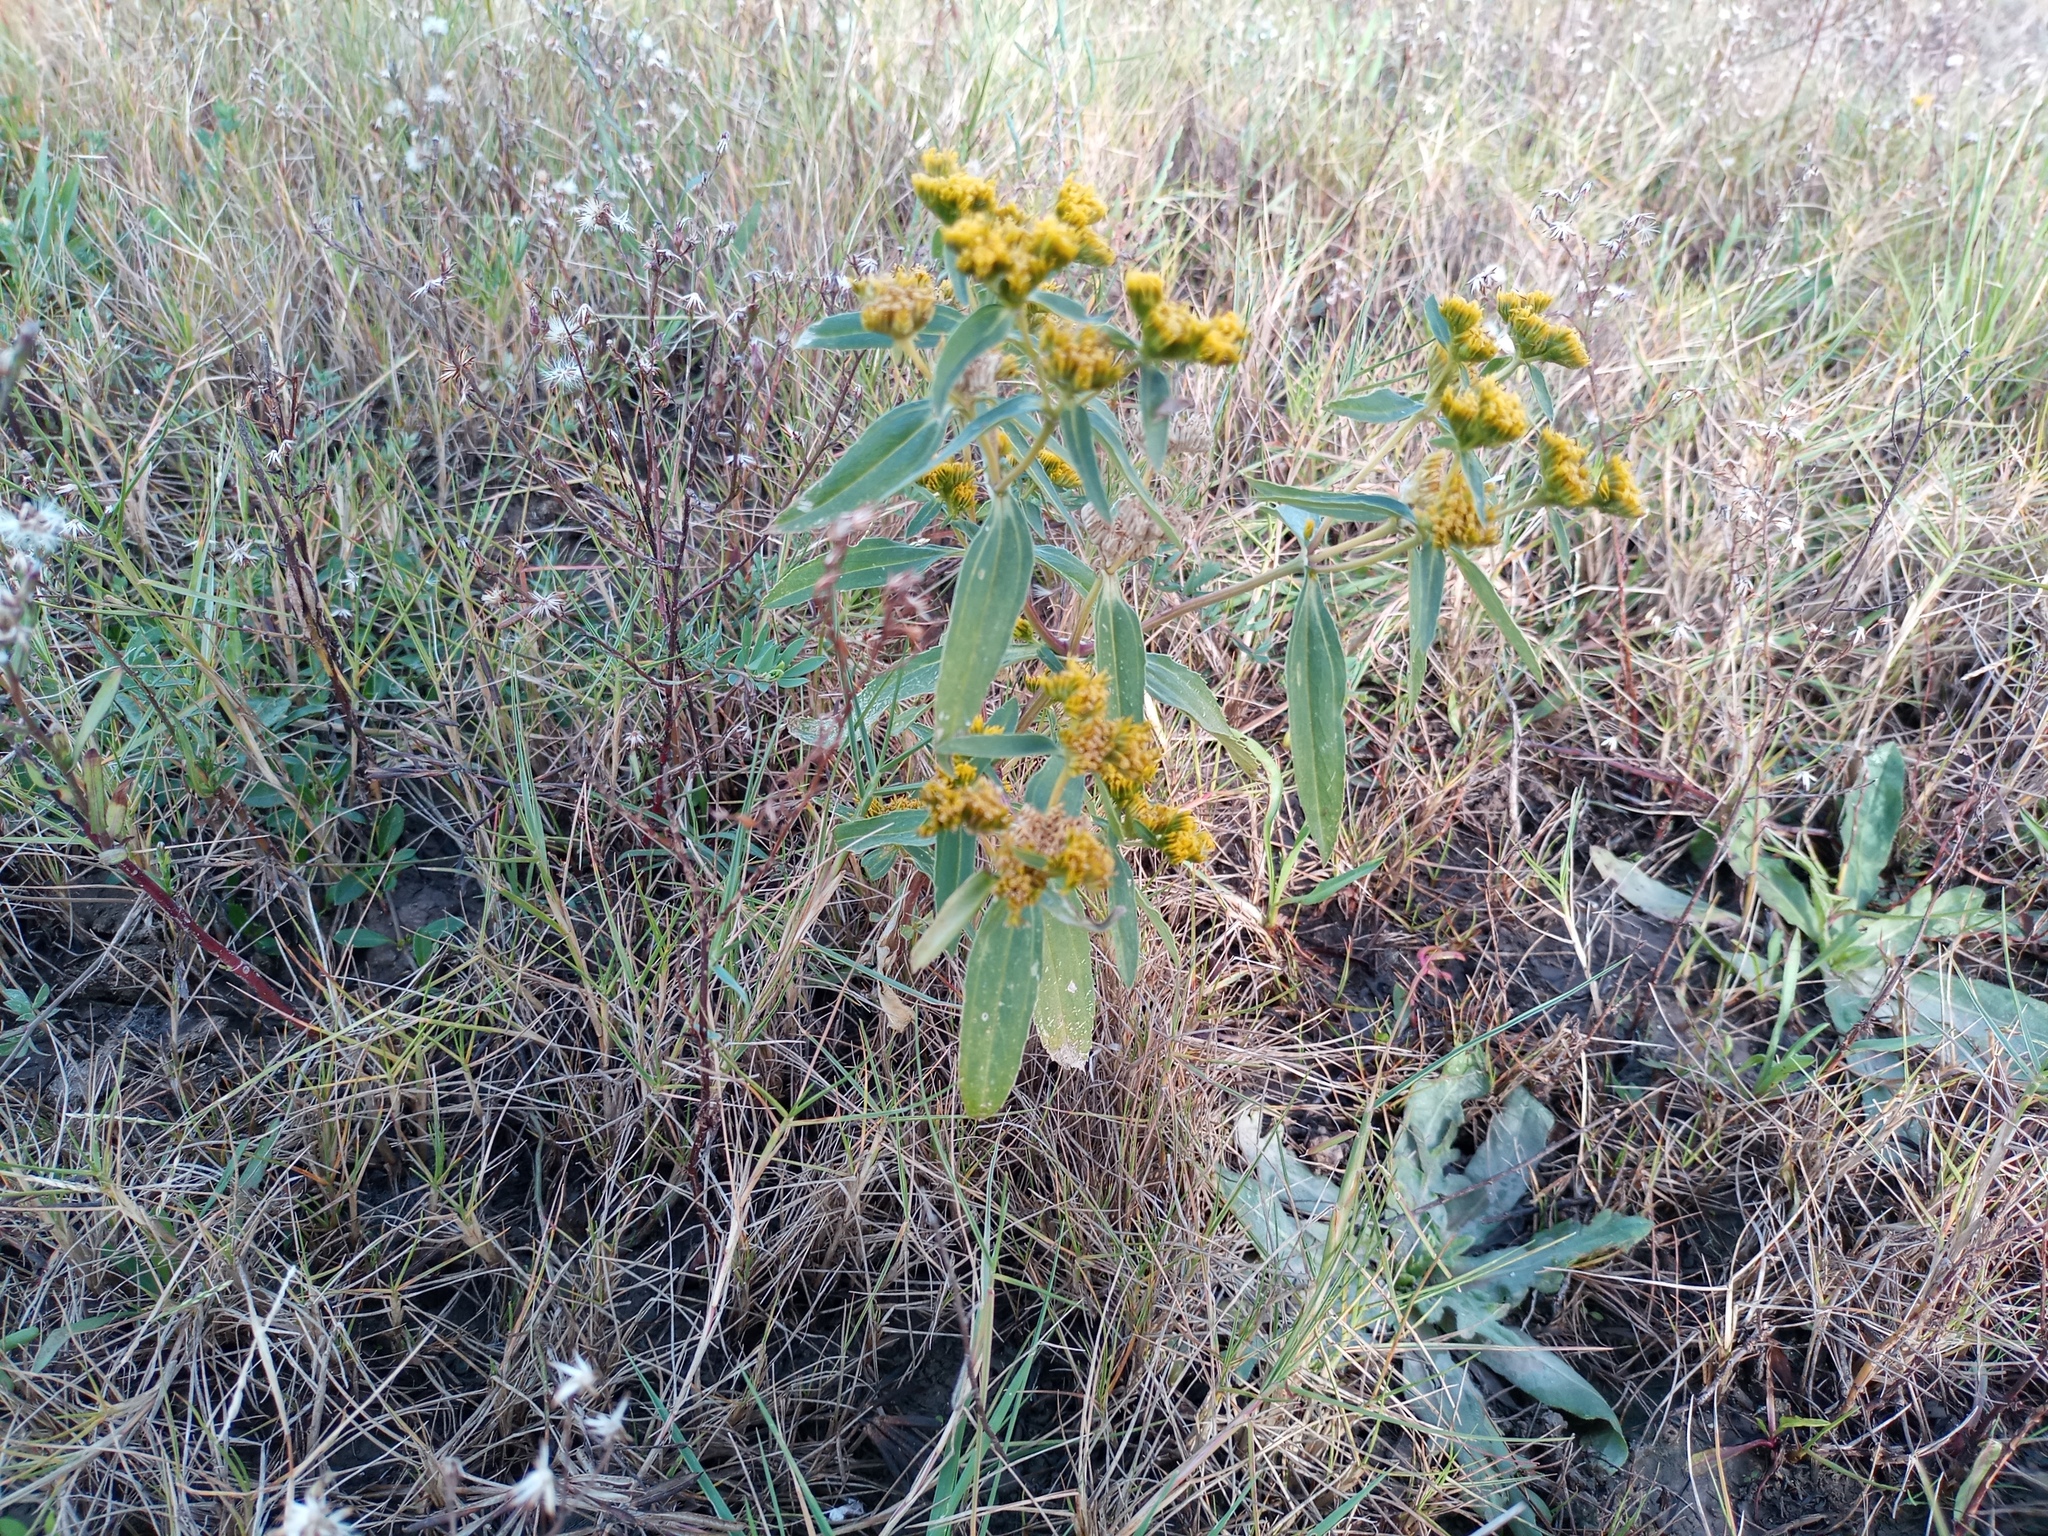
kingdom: Plantae
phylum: Tracheophyta
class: Magnoliopsida
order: Asterales
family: Asteraceae
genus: Flaveria
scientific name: Flaveria bidentis
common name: Coastal plain yellowtops
